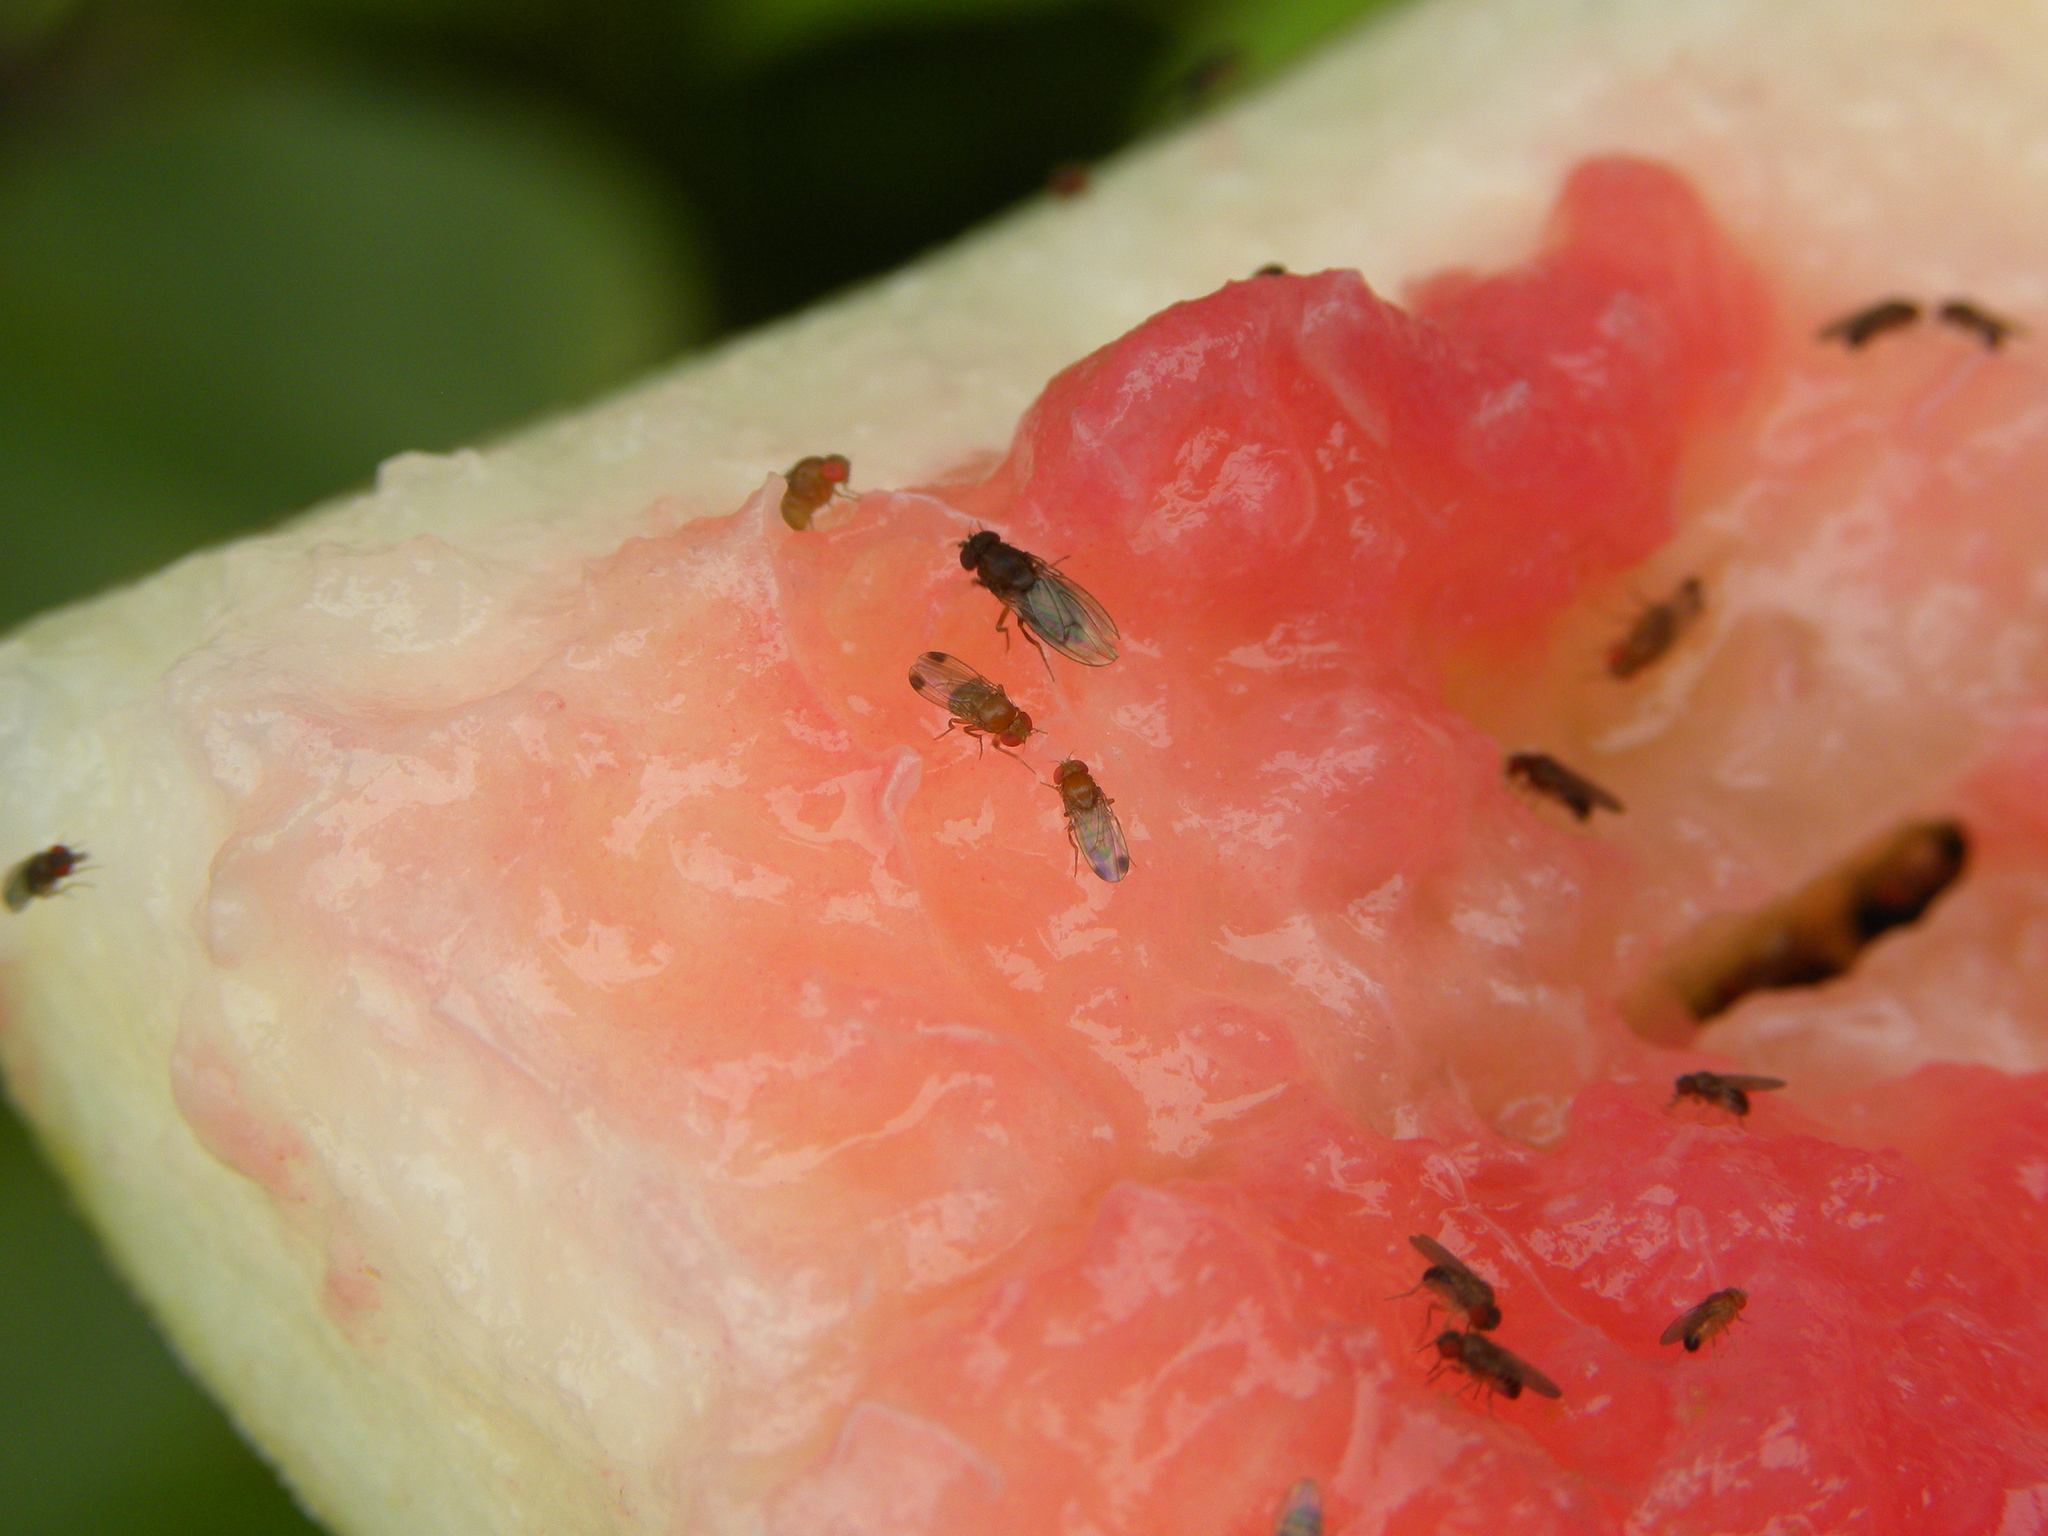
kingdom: Animalia
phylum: Arthropoda
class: Insecta
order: Diptera
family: Drosophilidae
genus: Drosophila
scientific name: Drosophila suzukii
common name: Spotted-wing drosophila
